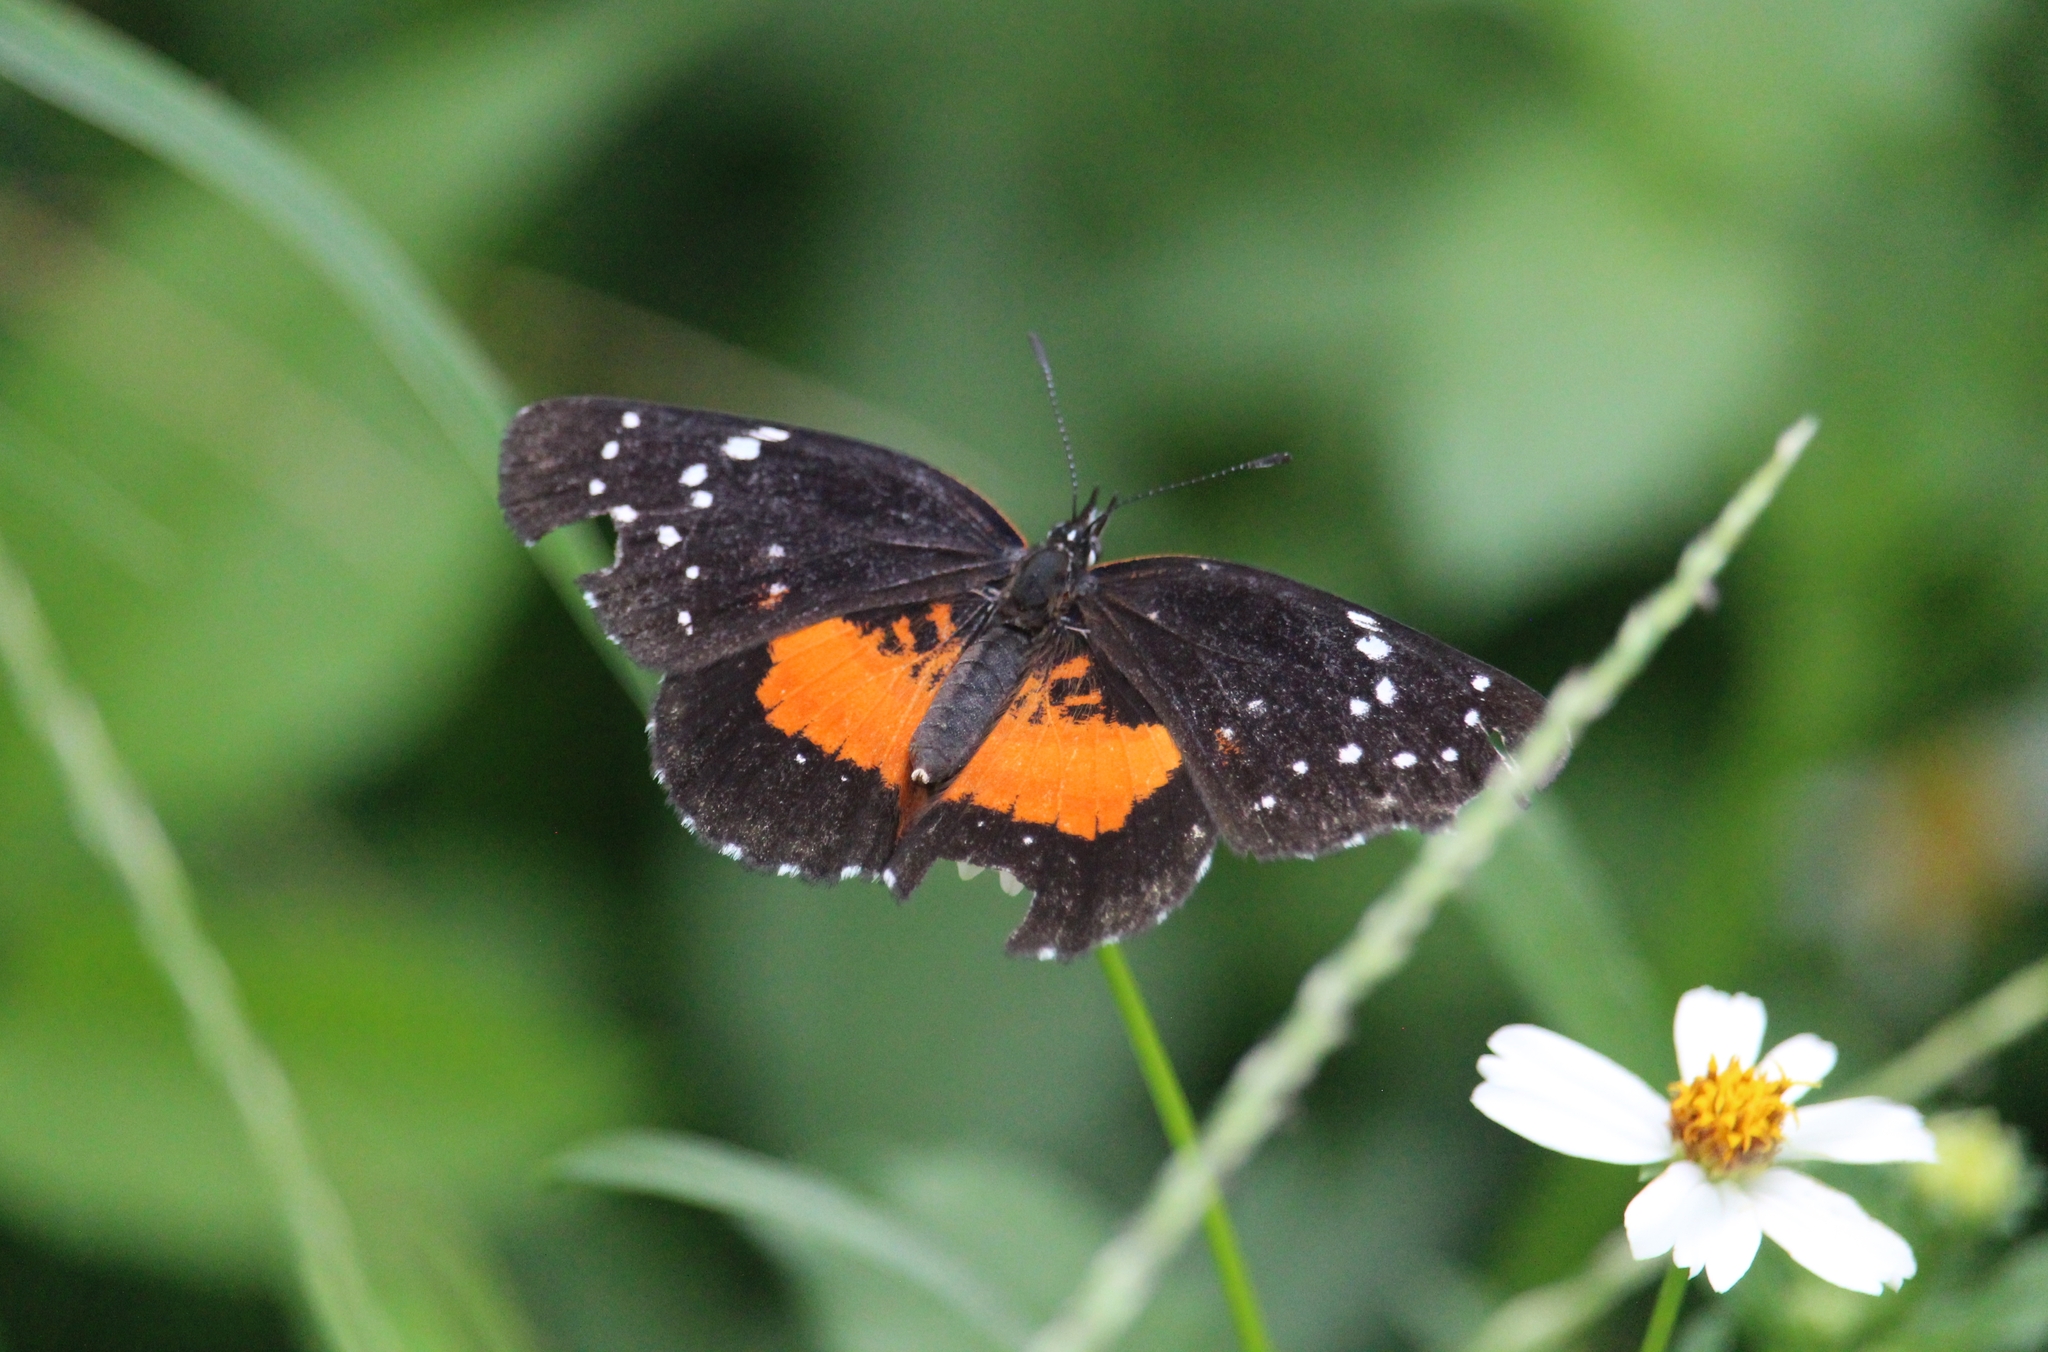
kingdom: Animalia
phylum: Arthropoda
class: Insecta
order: Lepidoptera
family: Nymphalidae
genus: Chlosyne
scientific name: Chlosyne janais
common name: Crimson patch
